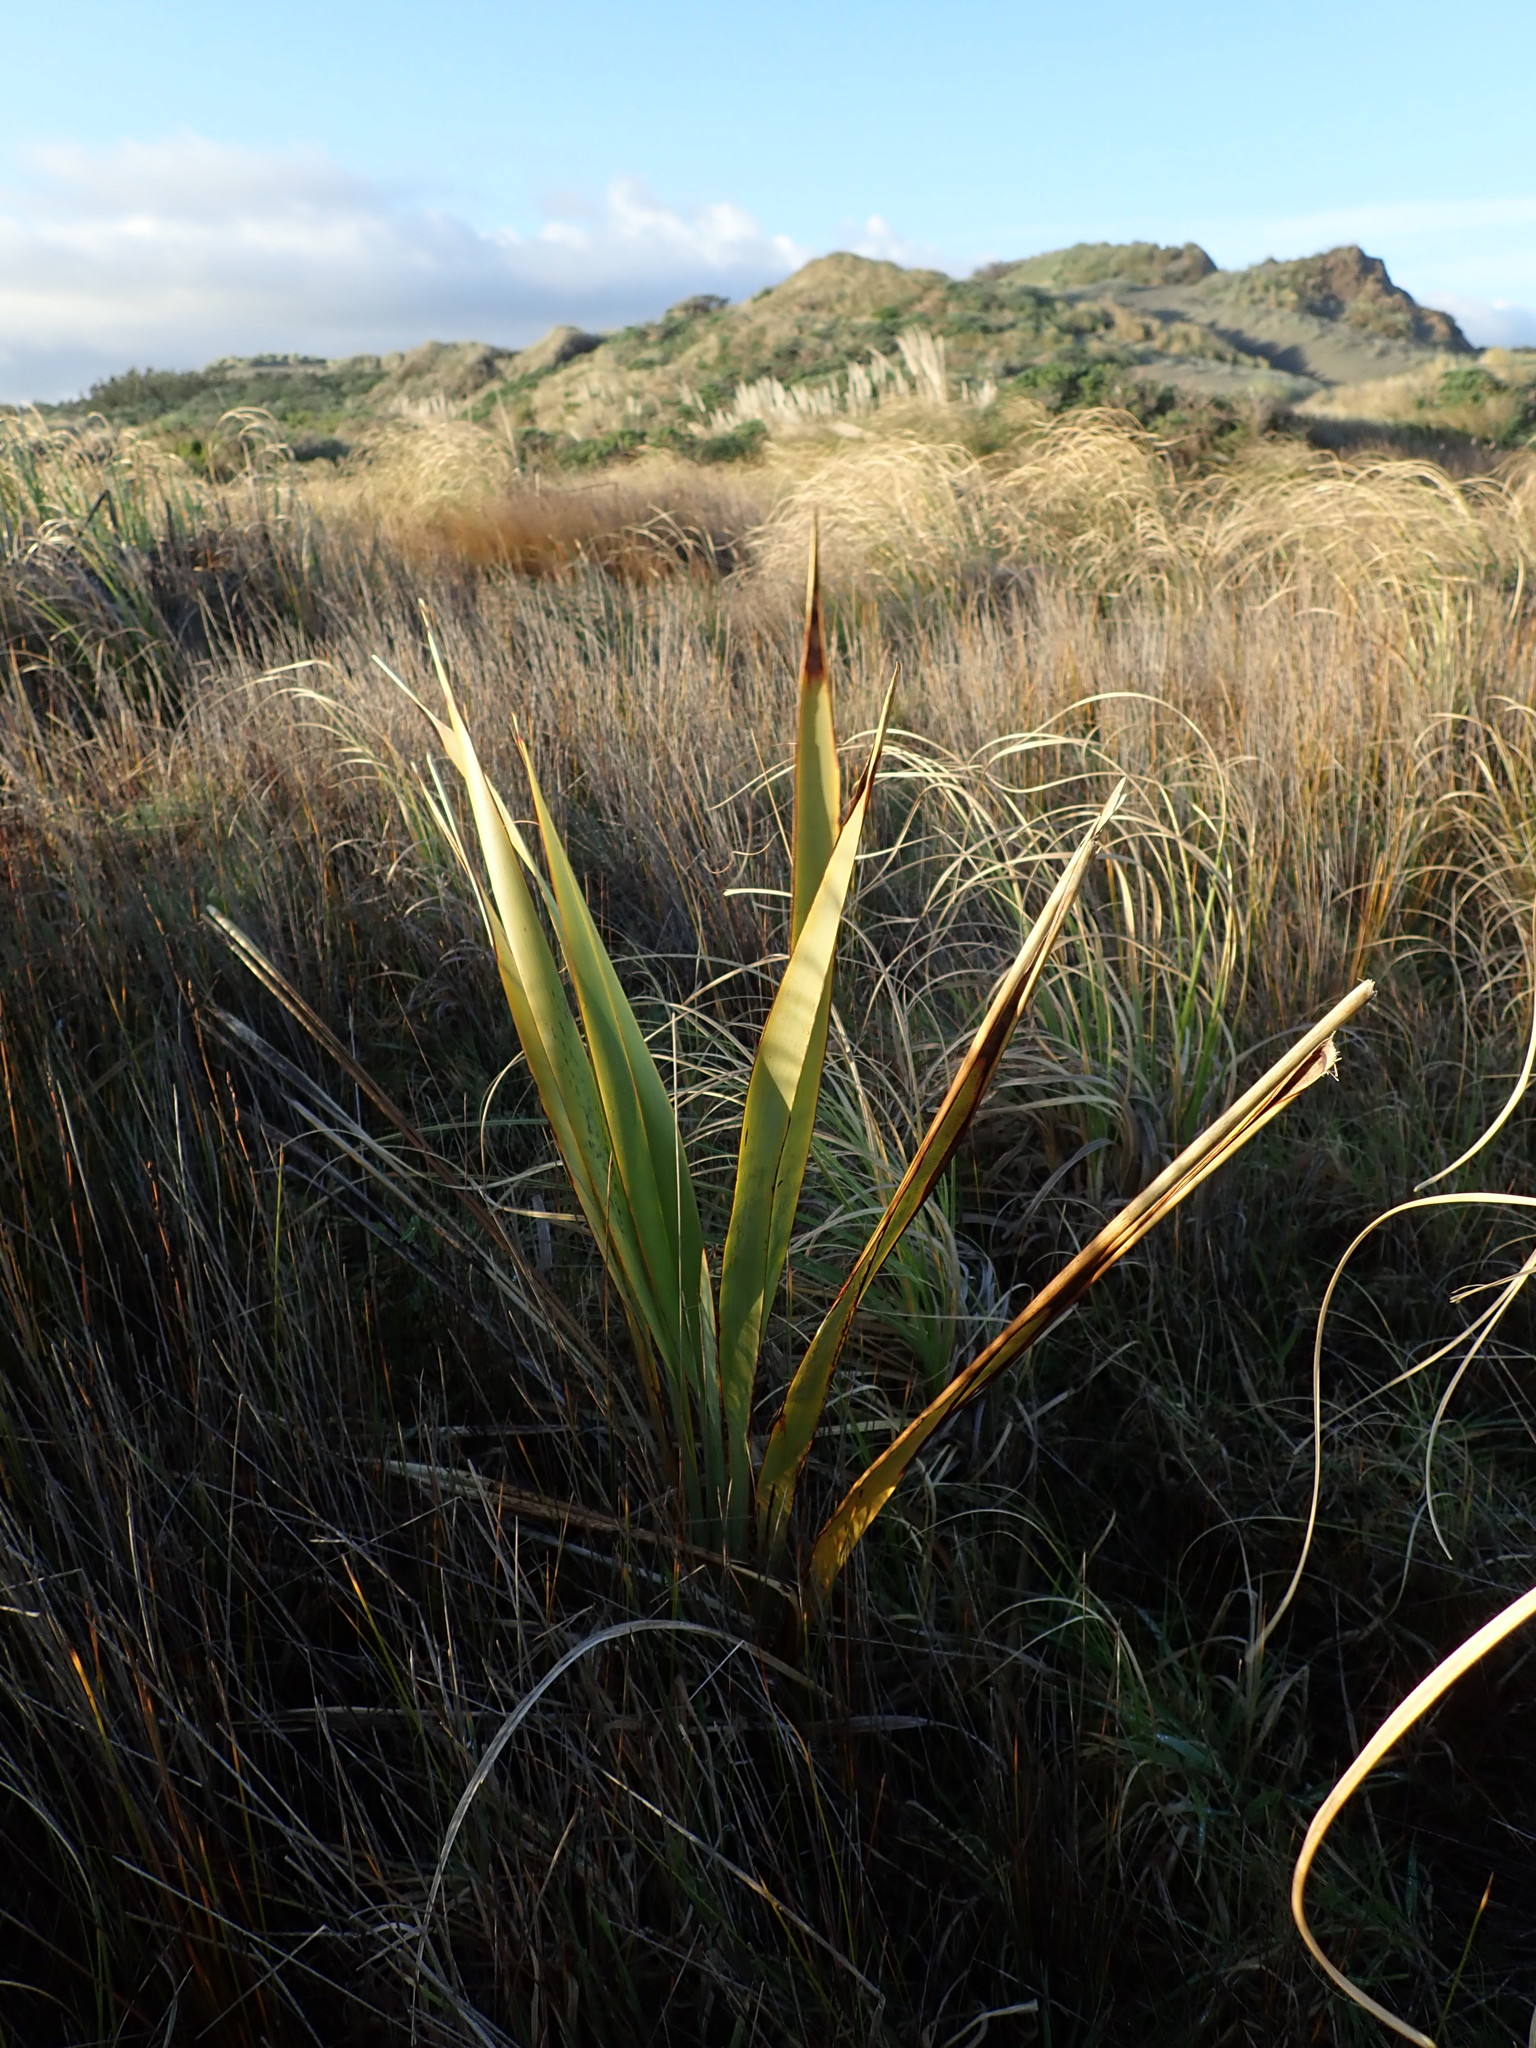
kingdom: Plantae
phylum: Tracheophyta
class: Liliopsida
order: Asparagales
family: Asphodelaceae
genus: Phormium
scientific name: Phormium tenax
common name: New zealand flax
